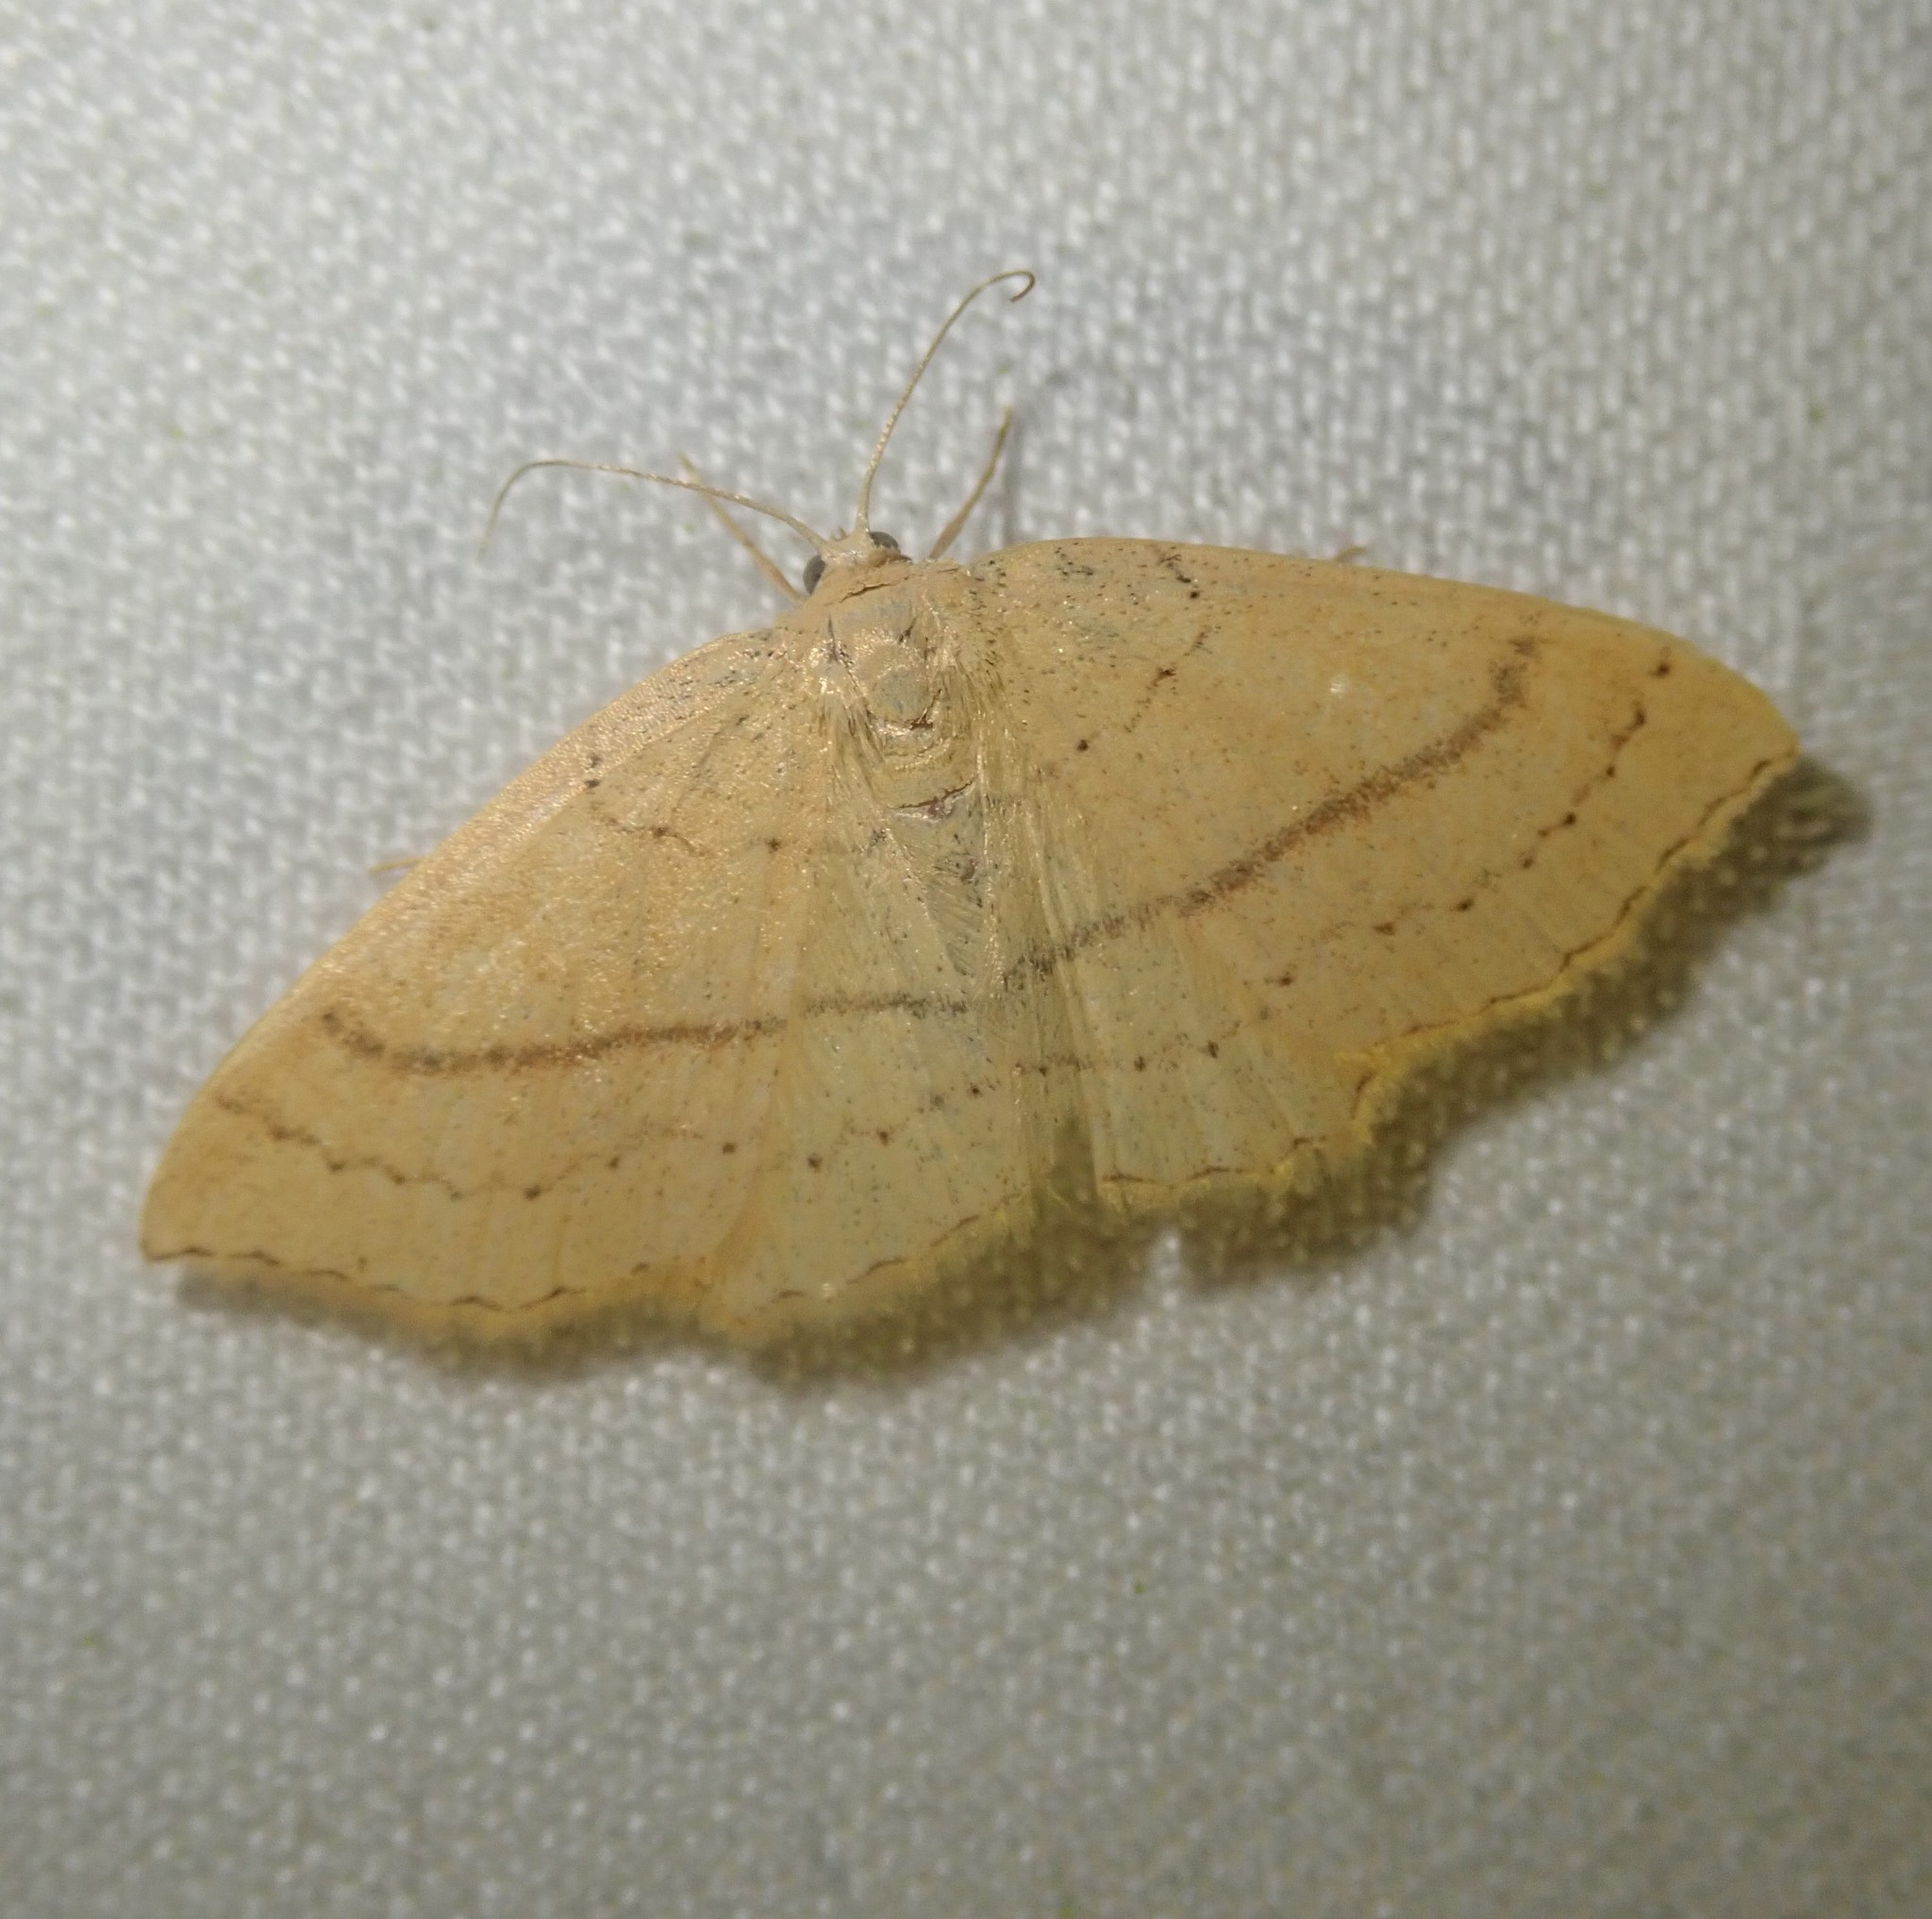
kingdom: Animalia
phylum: Arthropoda
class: Insecta
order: Lepidoptera
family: Geometridae
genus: Cyclophora
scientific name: Cyclophora linearia
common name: Clay triple-lines
